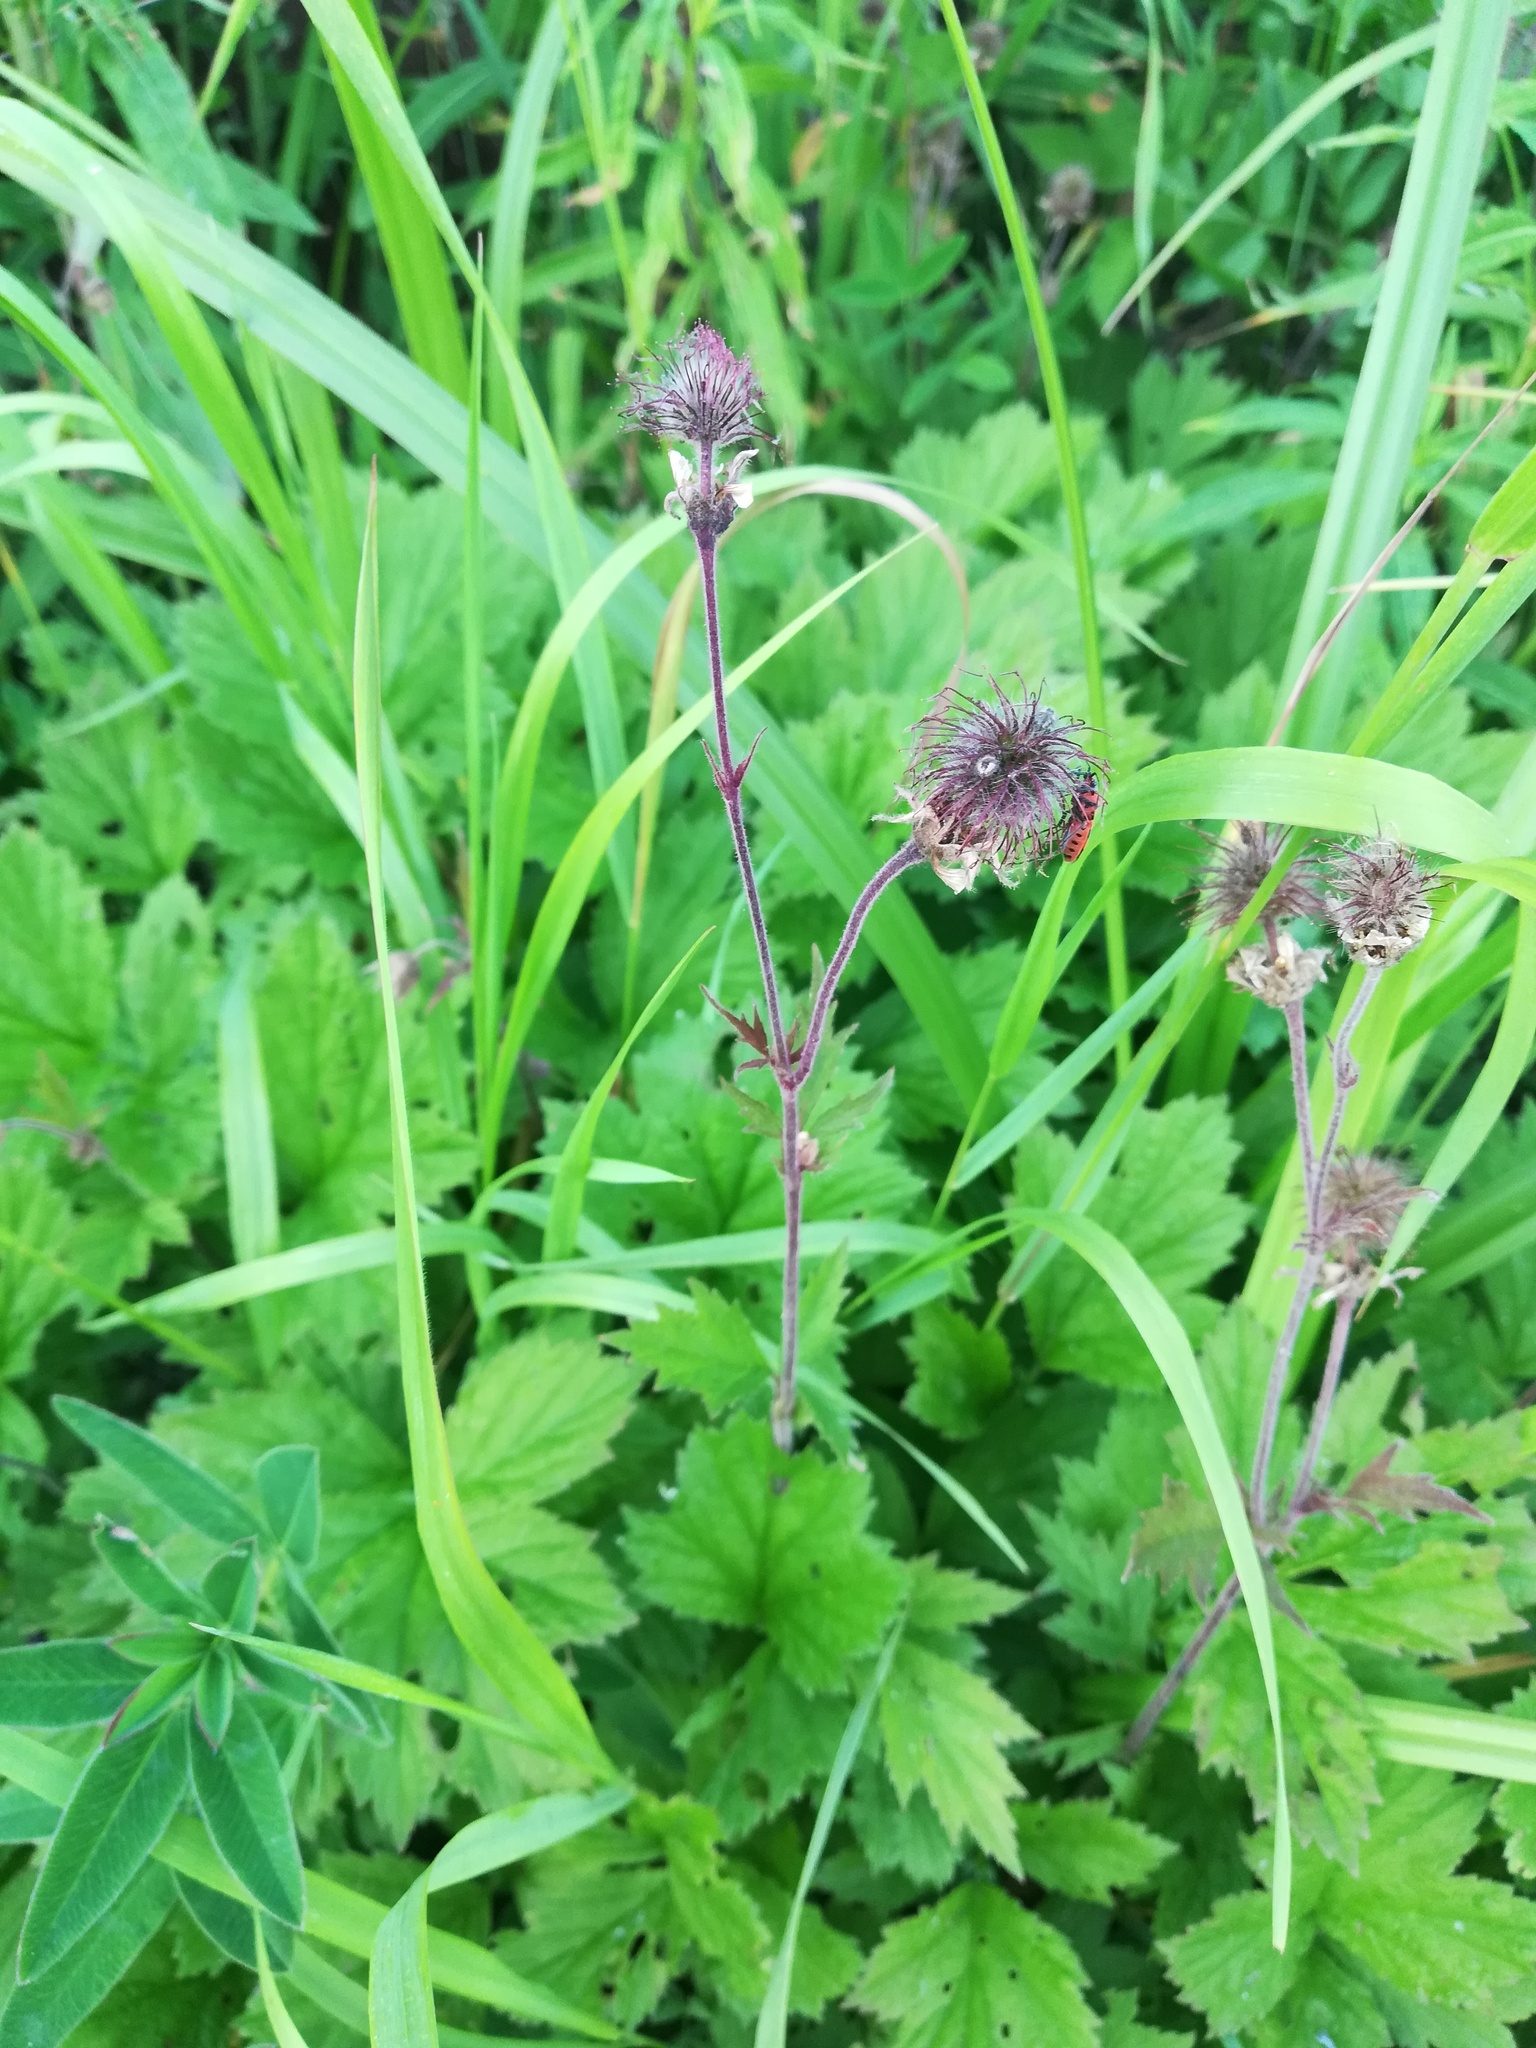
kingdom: Plantae
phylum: Tracheophyta
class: Magnoliopsida
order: Rosales
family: Rosaceae
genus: Geum
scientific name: Geum rivale
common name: Water avens
